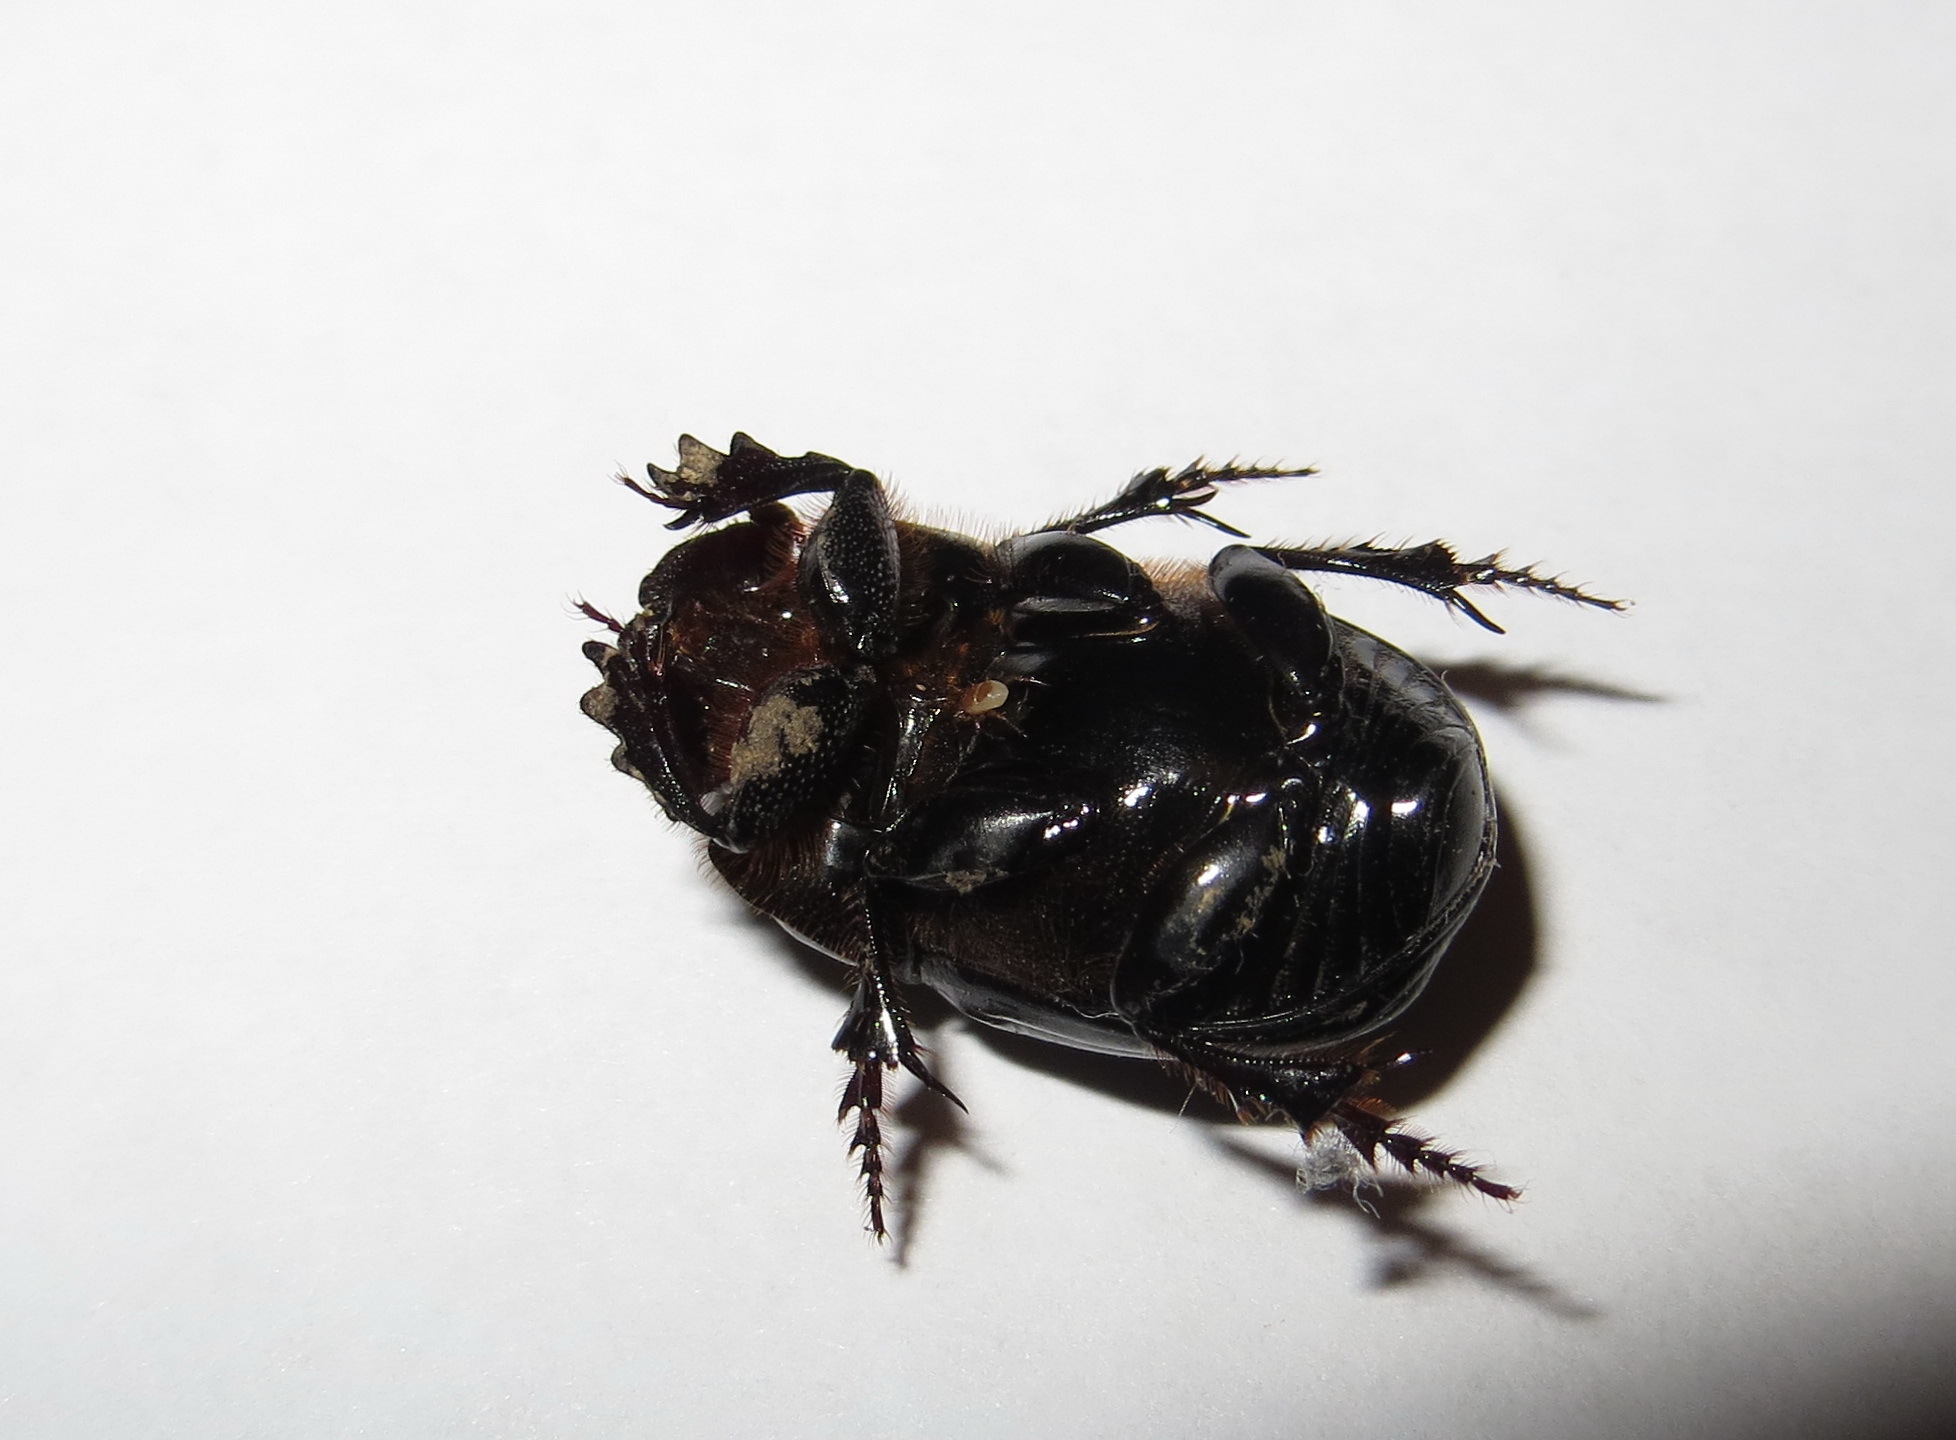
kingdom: Animalia
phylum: Arthropoda
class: Insecta
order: Coleoptera
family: Scarabaeidae
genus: Copris
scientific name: Copris lunaris
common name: Horned dung beetle
